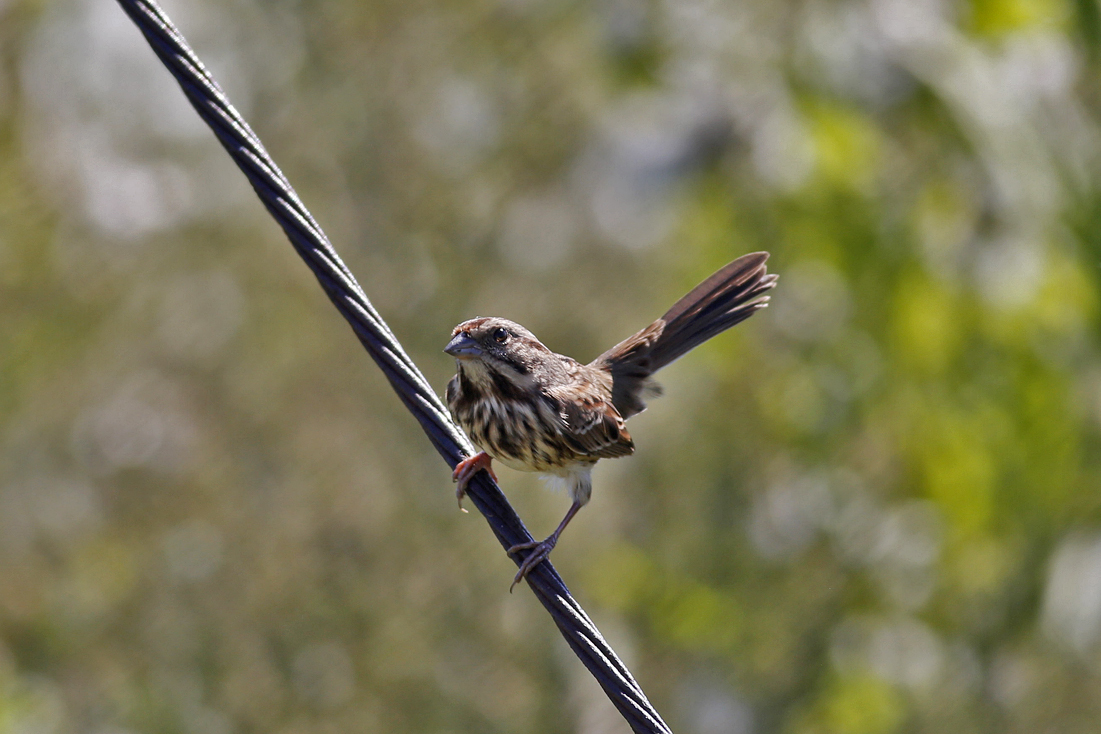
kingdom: Animalia
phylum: Chordata
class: Aves
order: Passeriformes
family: Passerellidae
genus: Melospiza
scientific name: Melospiza melodia
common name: Song sparrow
